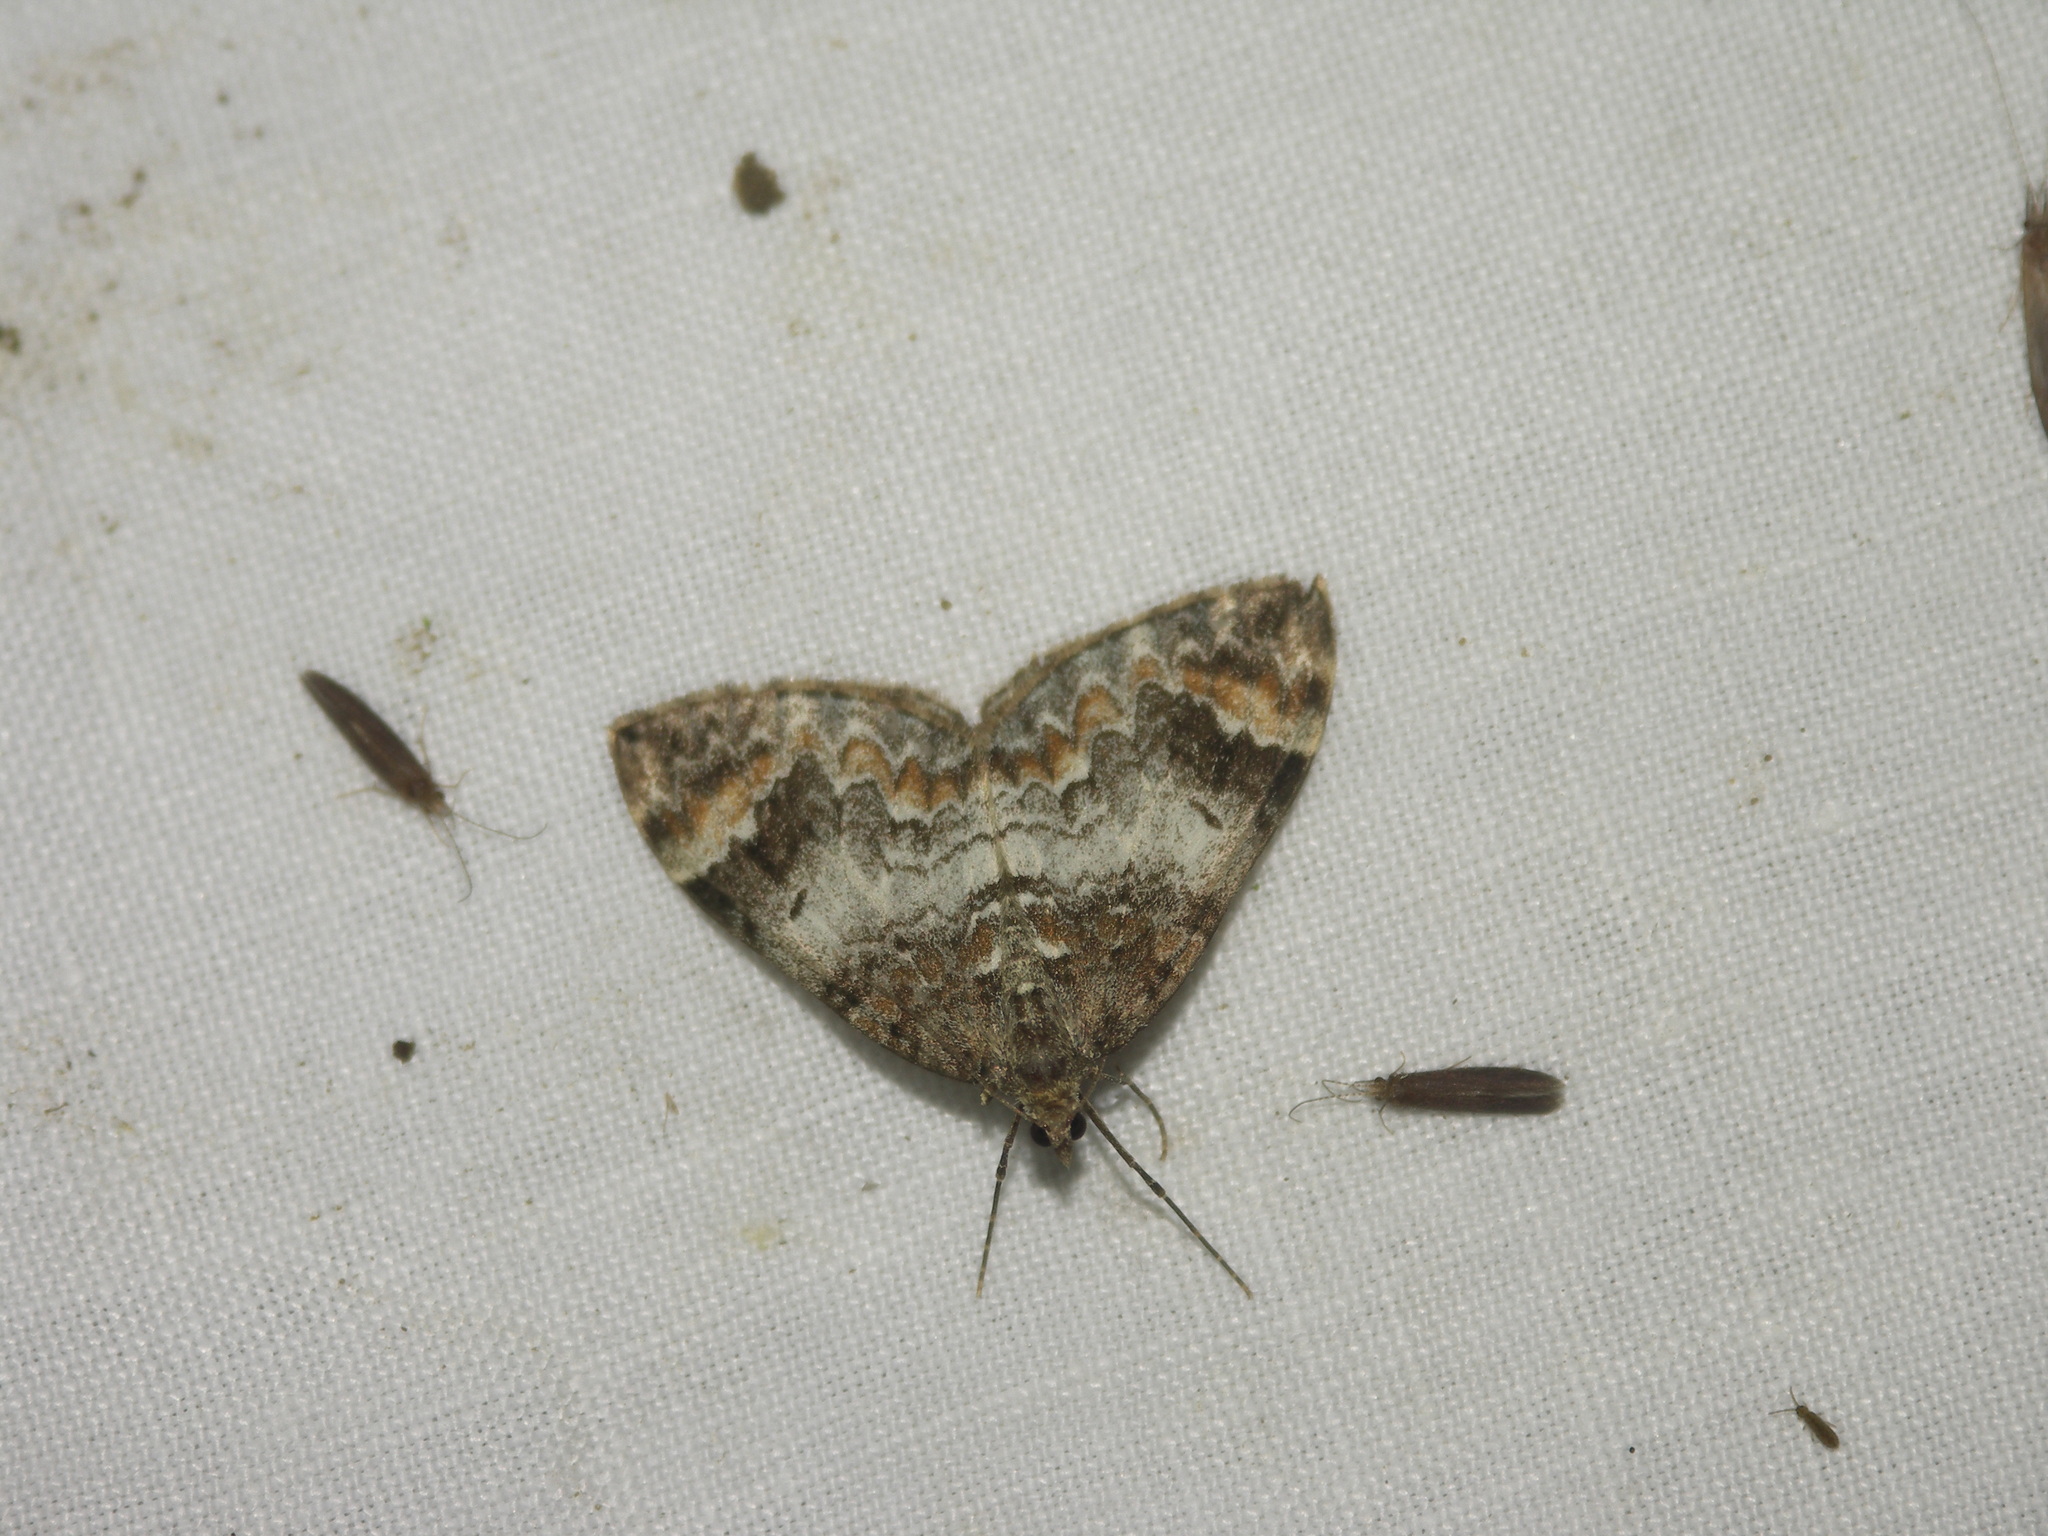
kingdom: Animalia
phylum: Arthropoda
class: Insecta
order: Lepidoptera
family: Geometridae
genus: Dysstroma
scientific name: Dysstroma truncata
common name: Common marbled carpet
